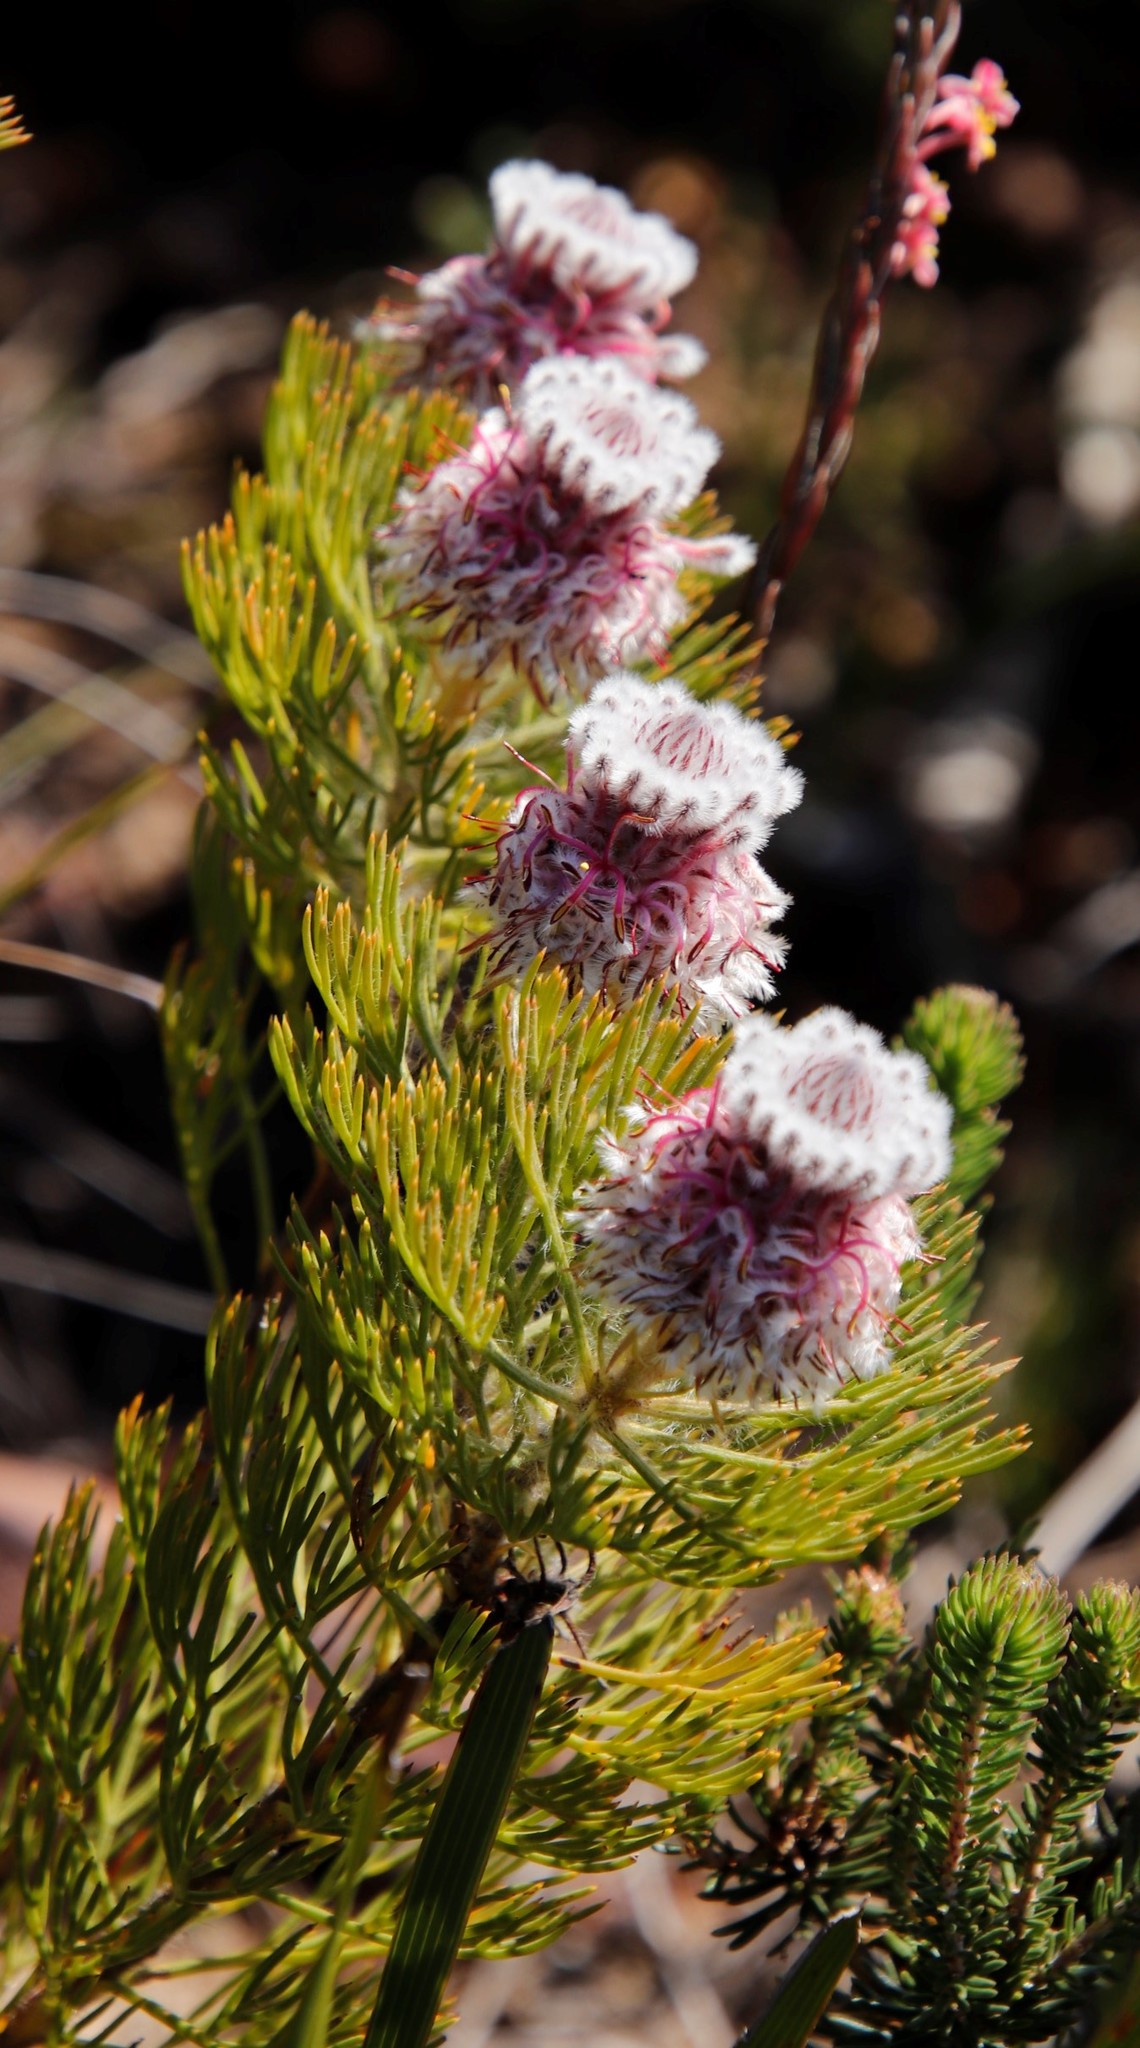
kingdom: Plantae
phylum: Tracheophyta
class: Magnoliopsida
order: Proteales
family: Proteaceae
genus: Serruria
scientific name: Serruria hirsuta
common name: Swartkops spiderhead
